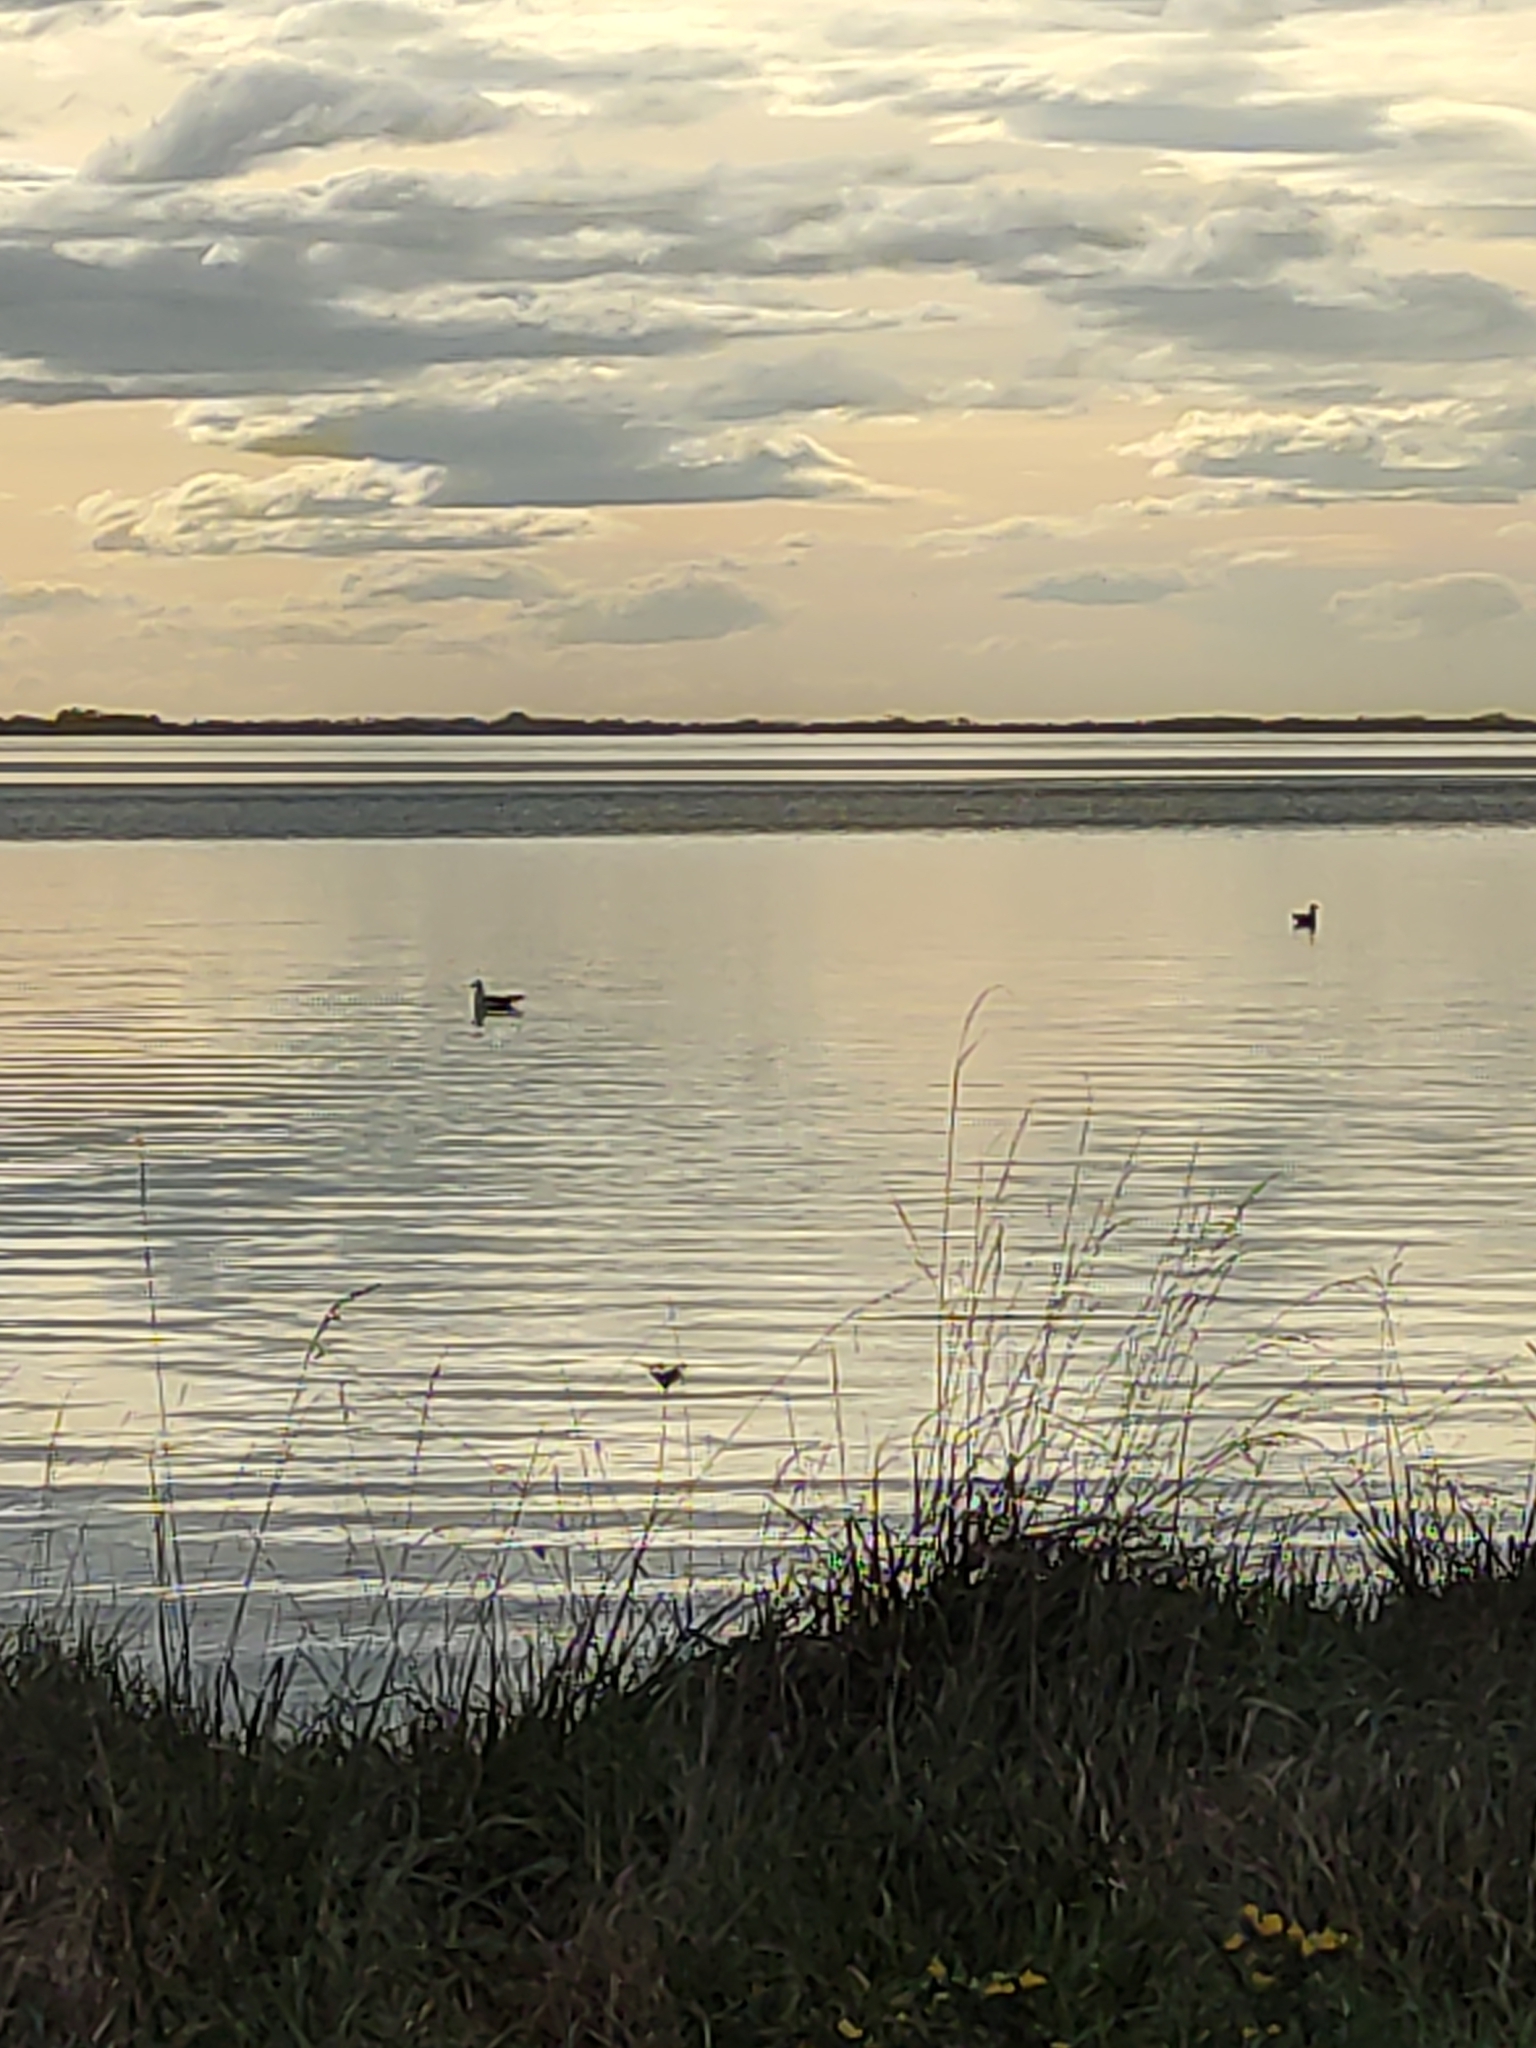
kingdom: Animalia
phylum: Chordata
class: Aves
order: Charadriiformes
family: Laridae
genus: Larus
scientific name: Larus dominicanus
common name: Kelp gull
